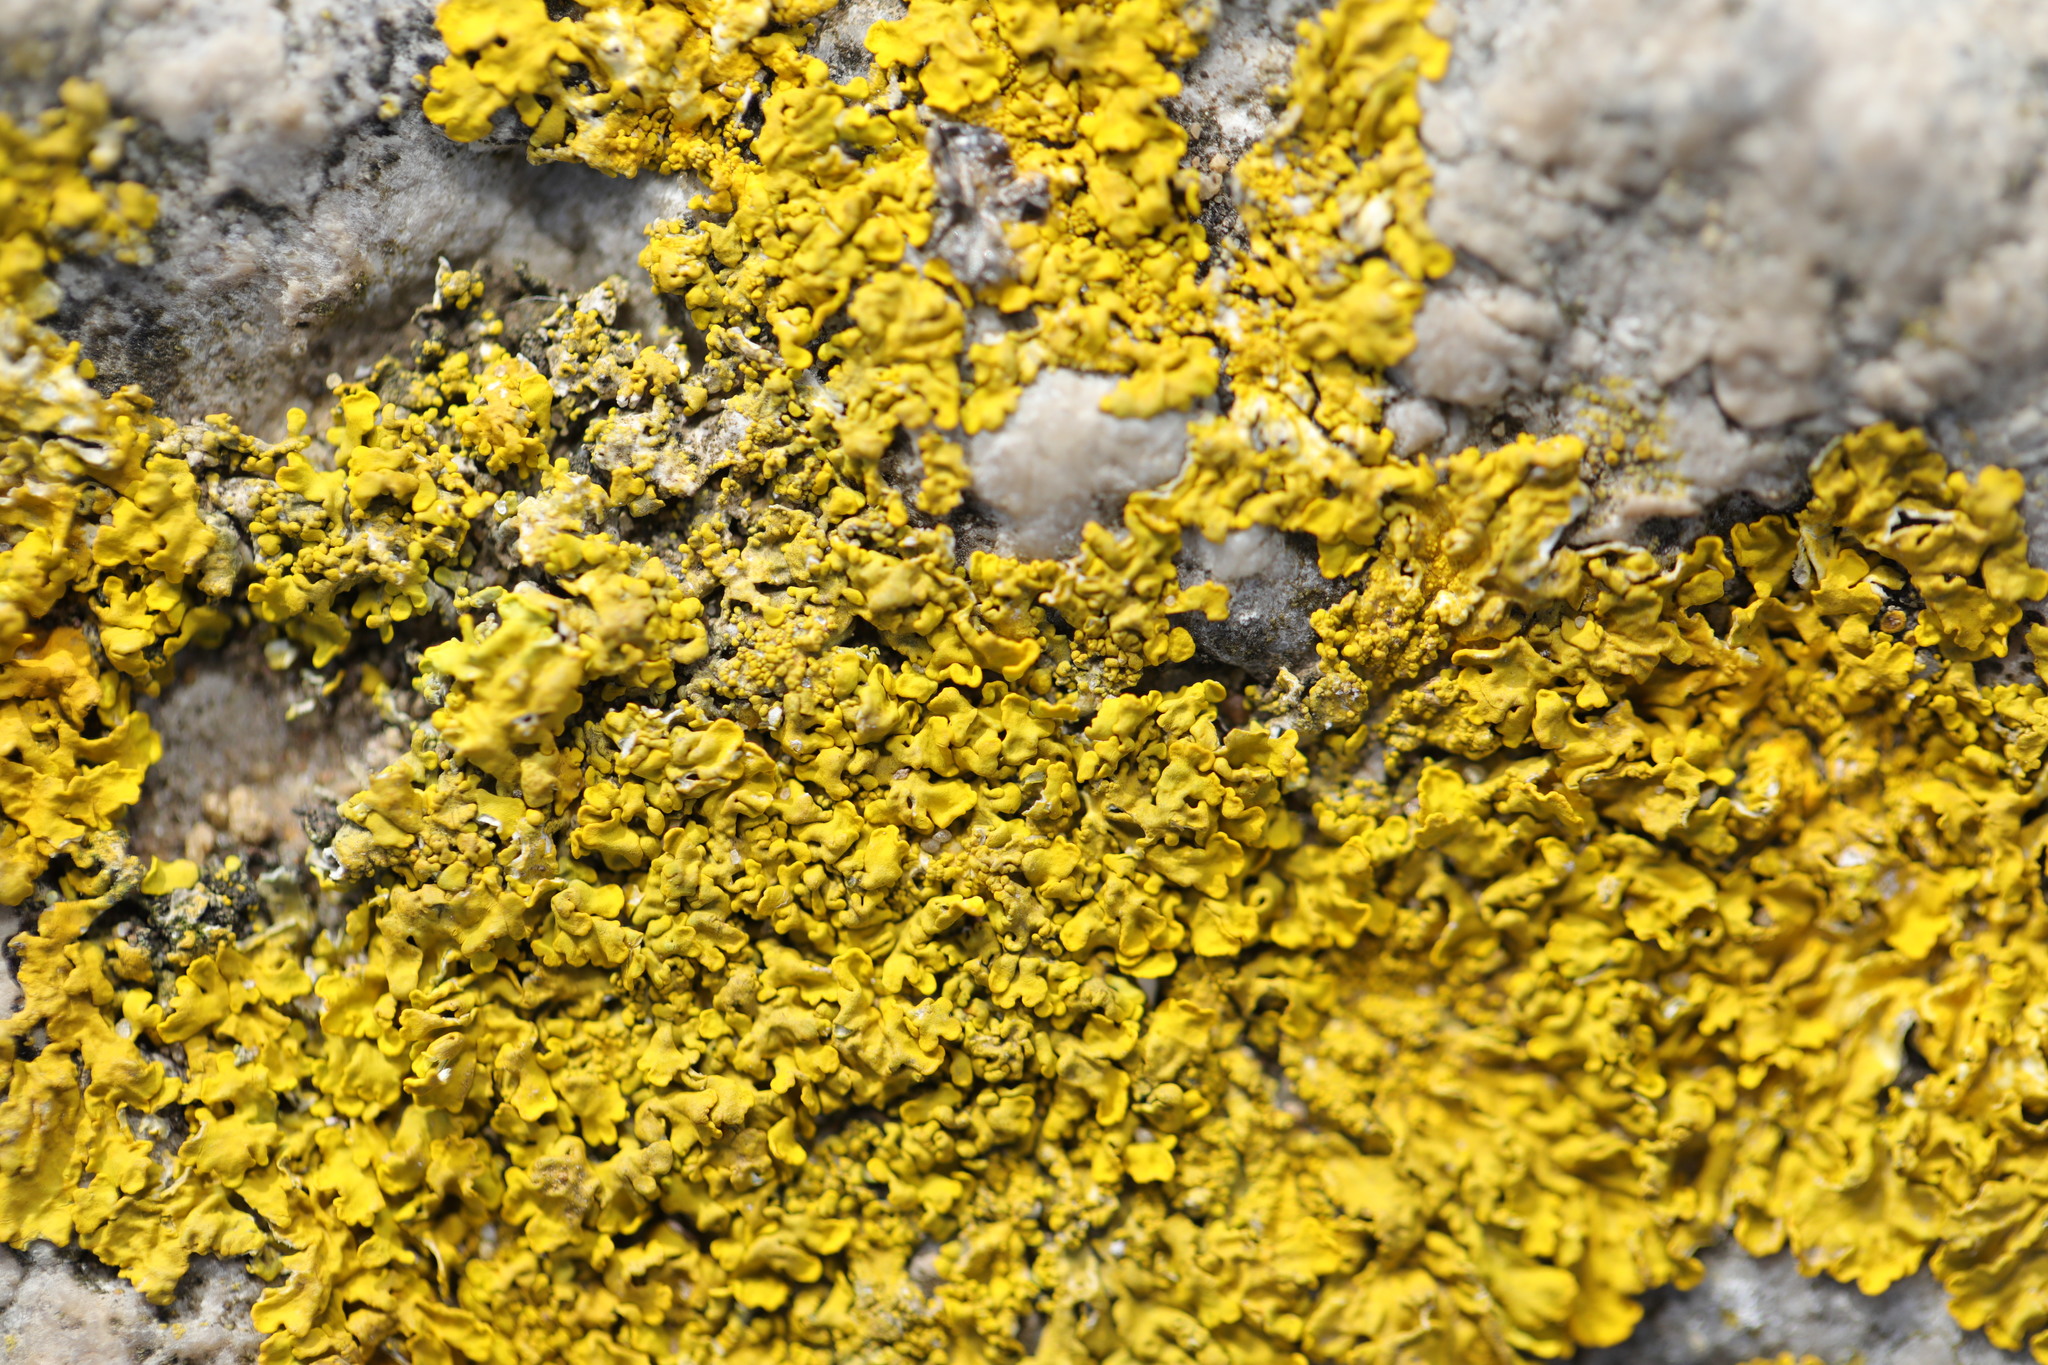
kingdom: Fungi
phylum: Ascomycota
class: Lecanoromycetes
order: Teloschistales
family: Teloschistaceae
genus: Xanthoria
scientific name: Xanthoria parietina
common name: Common orange lichen
